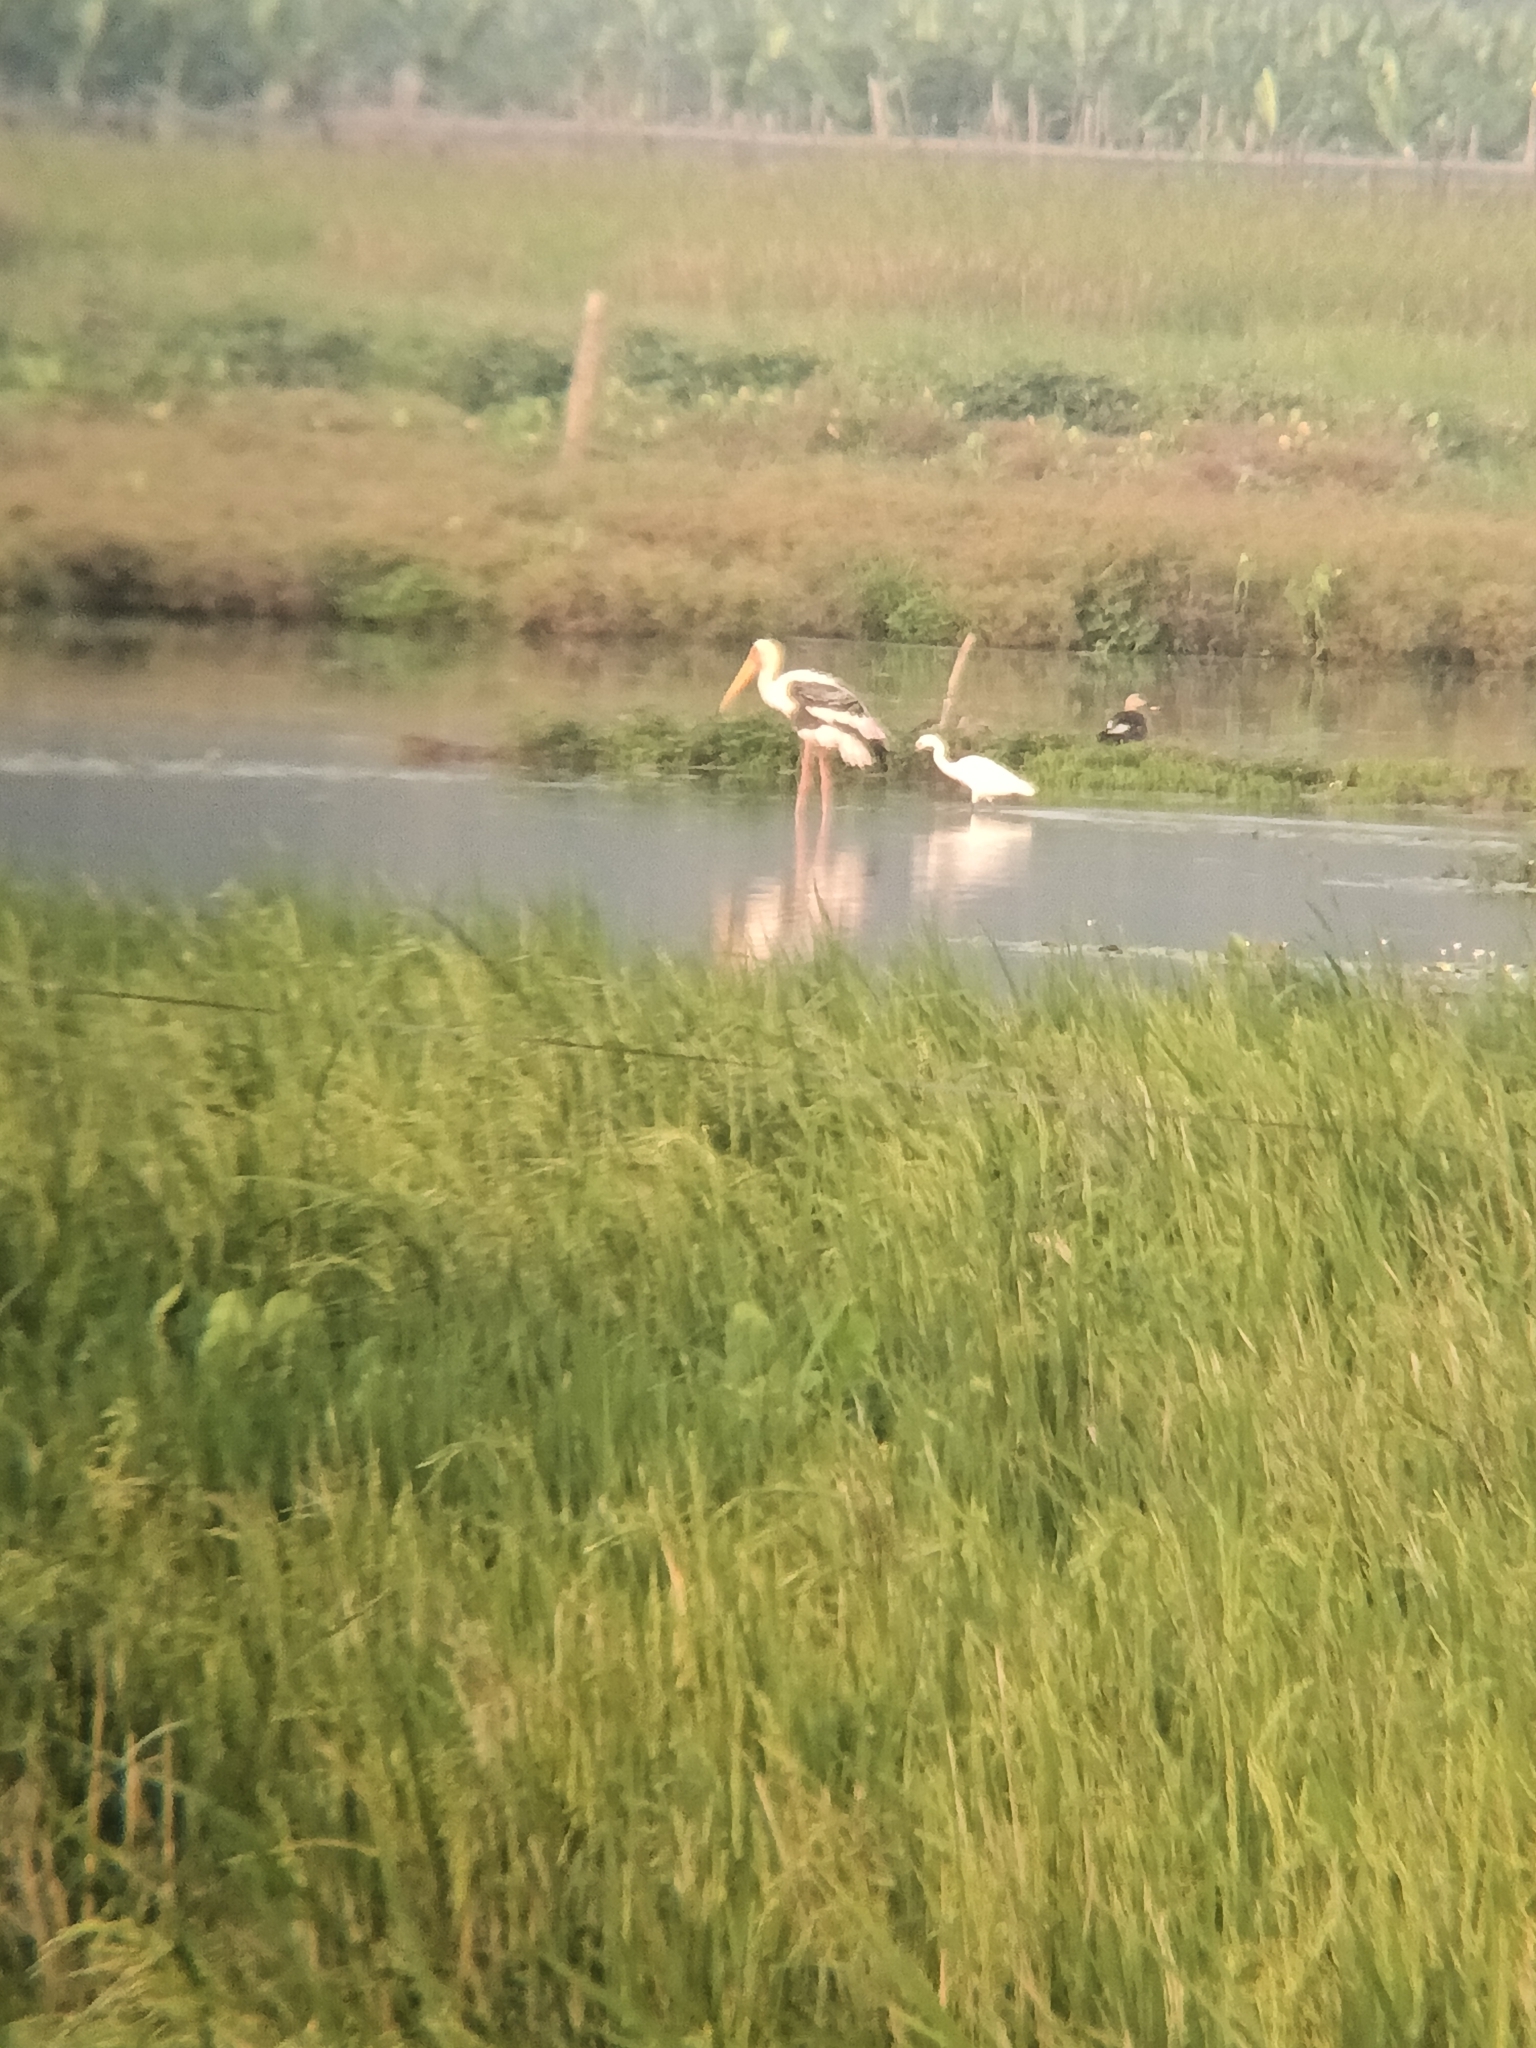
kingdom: Animalia
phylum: Chordata
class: Aves
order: Anseriformes
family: Anatidae
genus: Anas
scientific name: Anas poecilorhyncha
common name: Indian spot-billed duck
